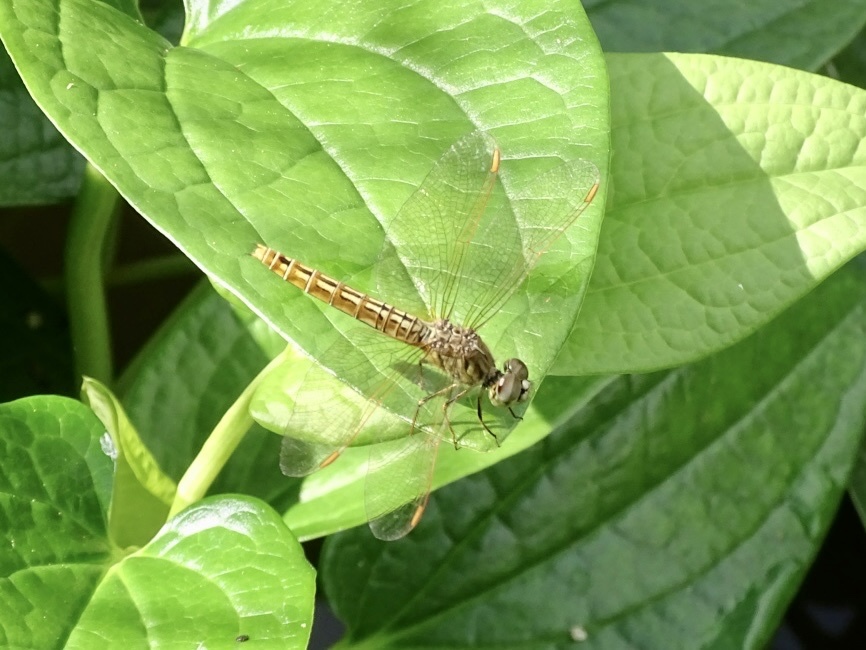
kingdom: Animalia
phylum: Arthropoda
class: Insecta
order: Odonata
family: Libellulidae
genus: Brachythemis
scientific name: Brachythemis contaminata
